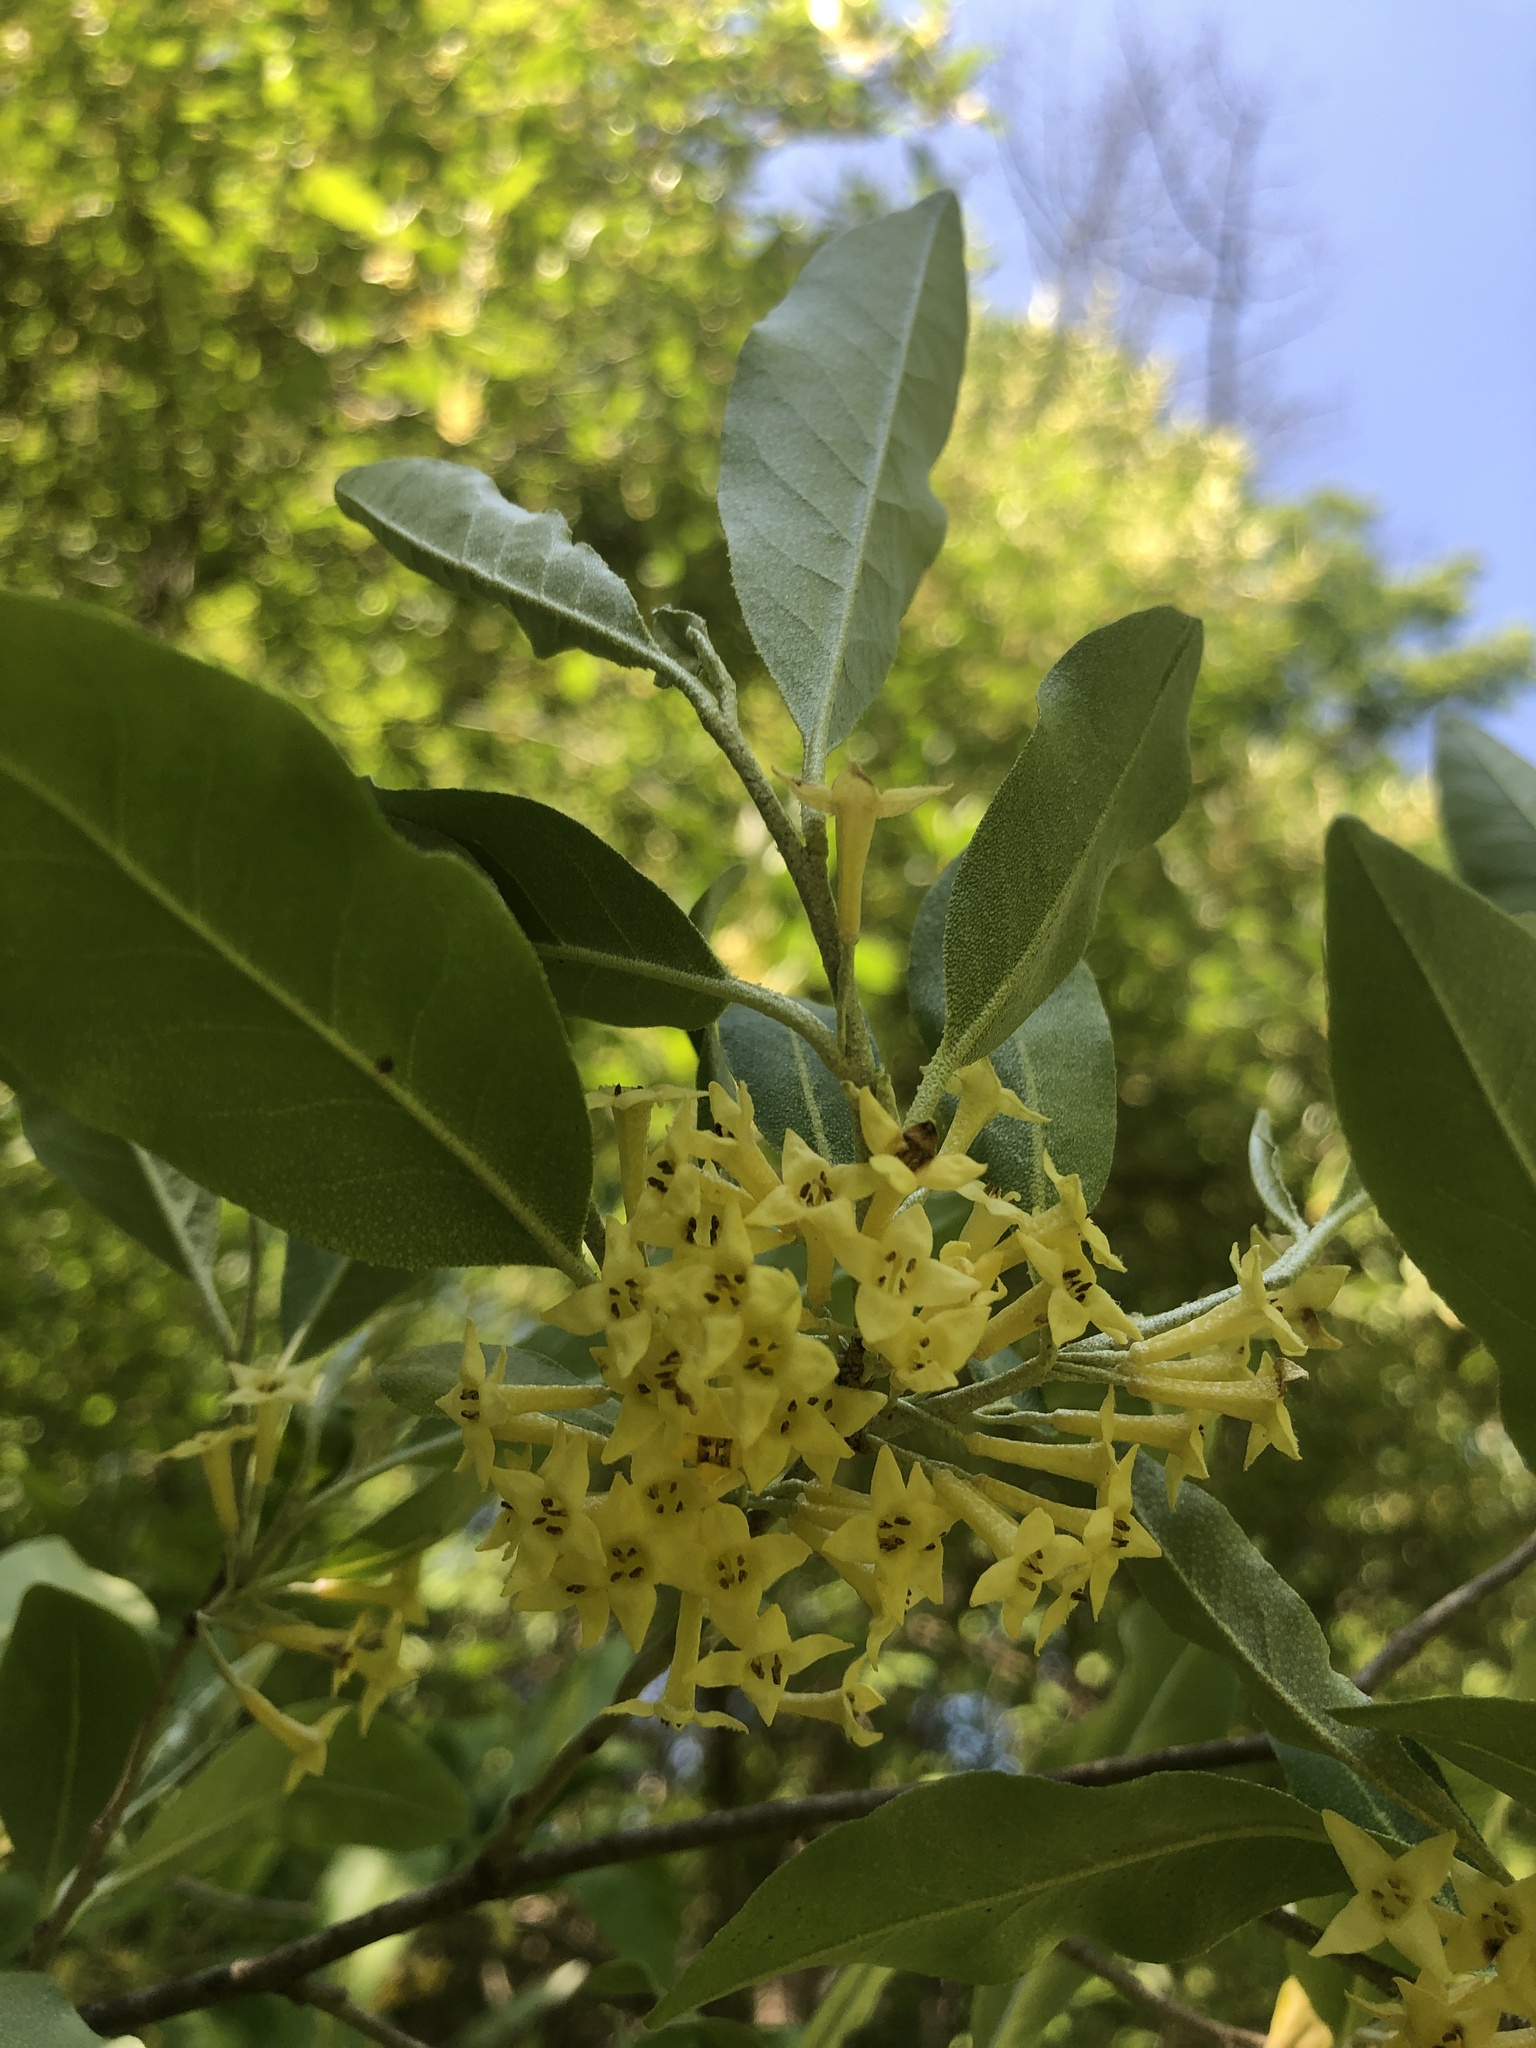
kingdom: Plantae
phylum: Tracheophyta
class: Magnoliopsida
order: Rosales
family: Elaeagnaceae
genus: Elaeagnus
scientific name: Elaeagnus umbellata
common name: Autumn olive
